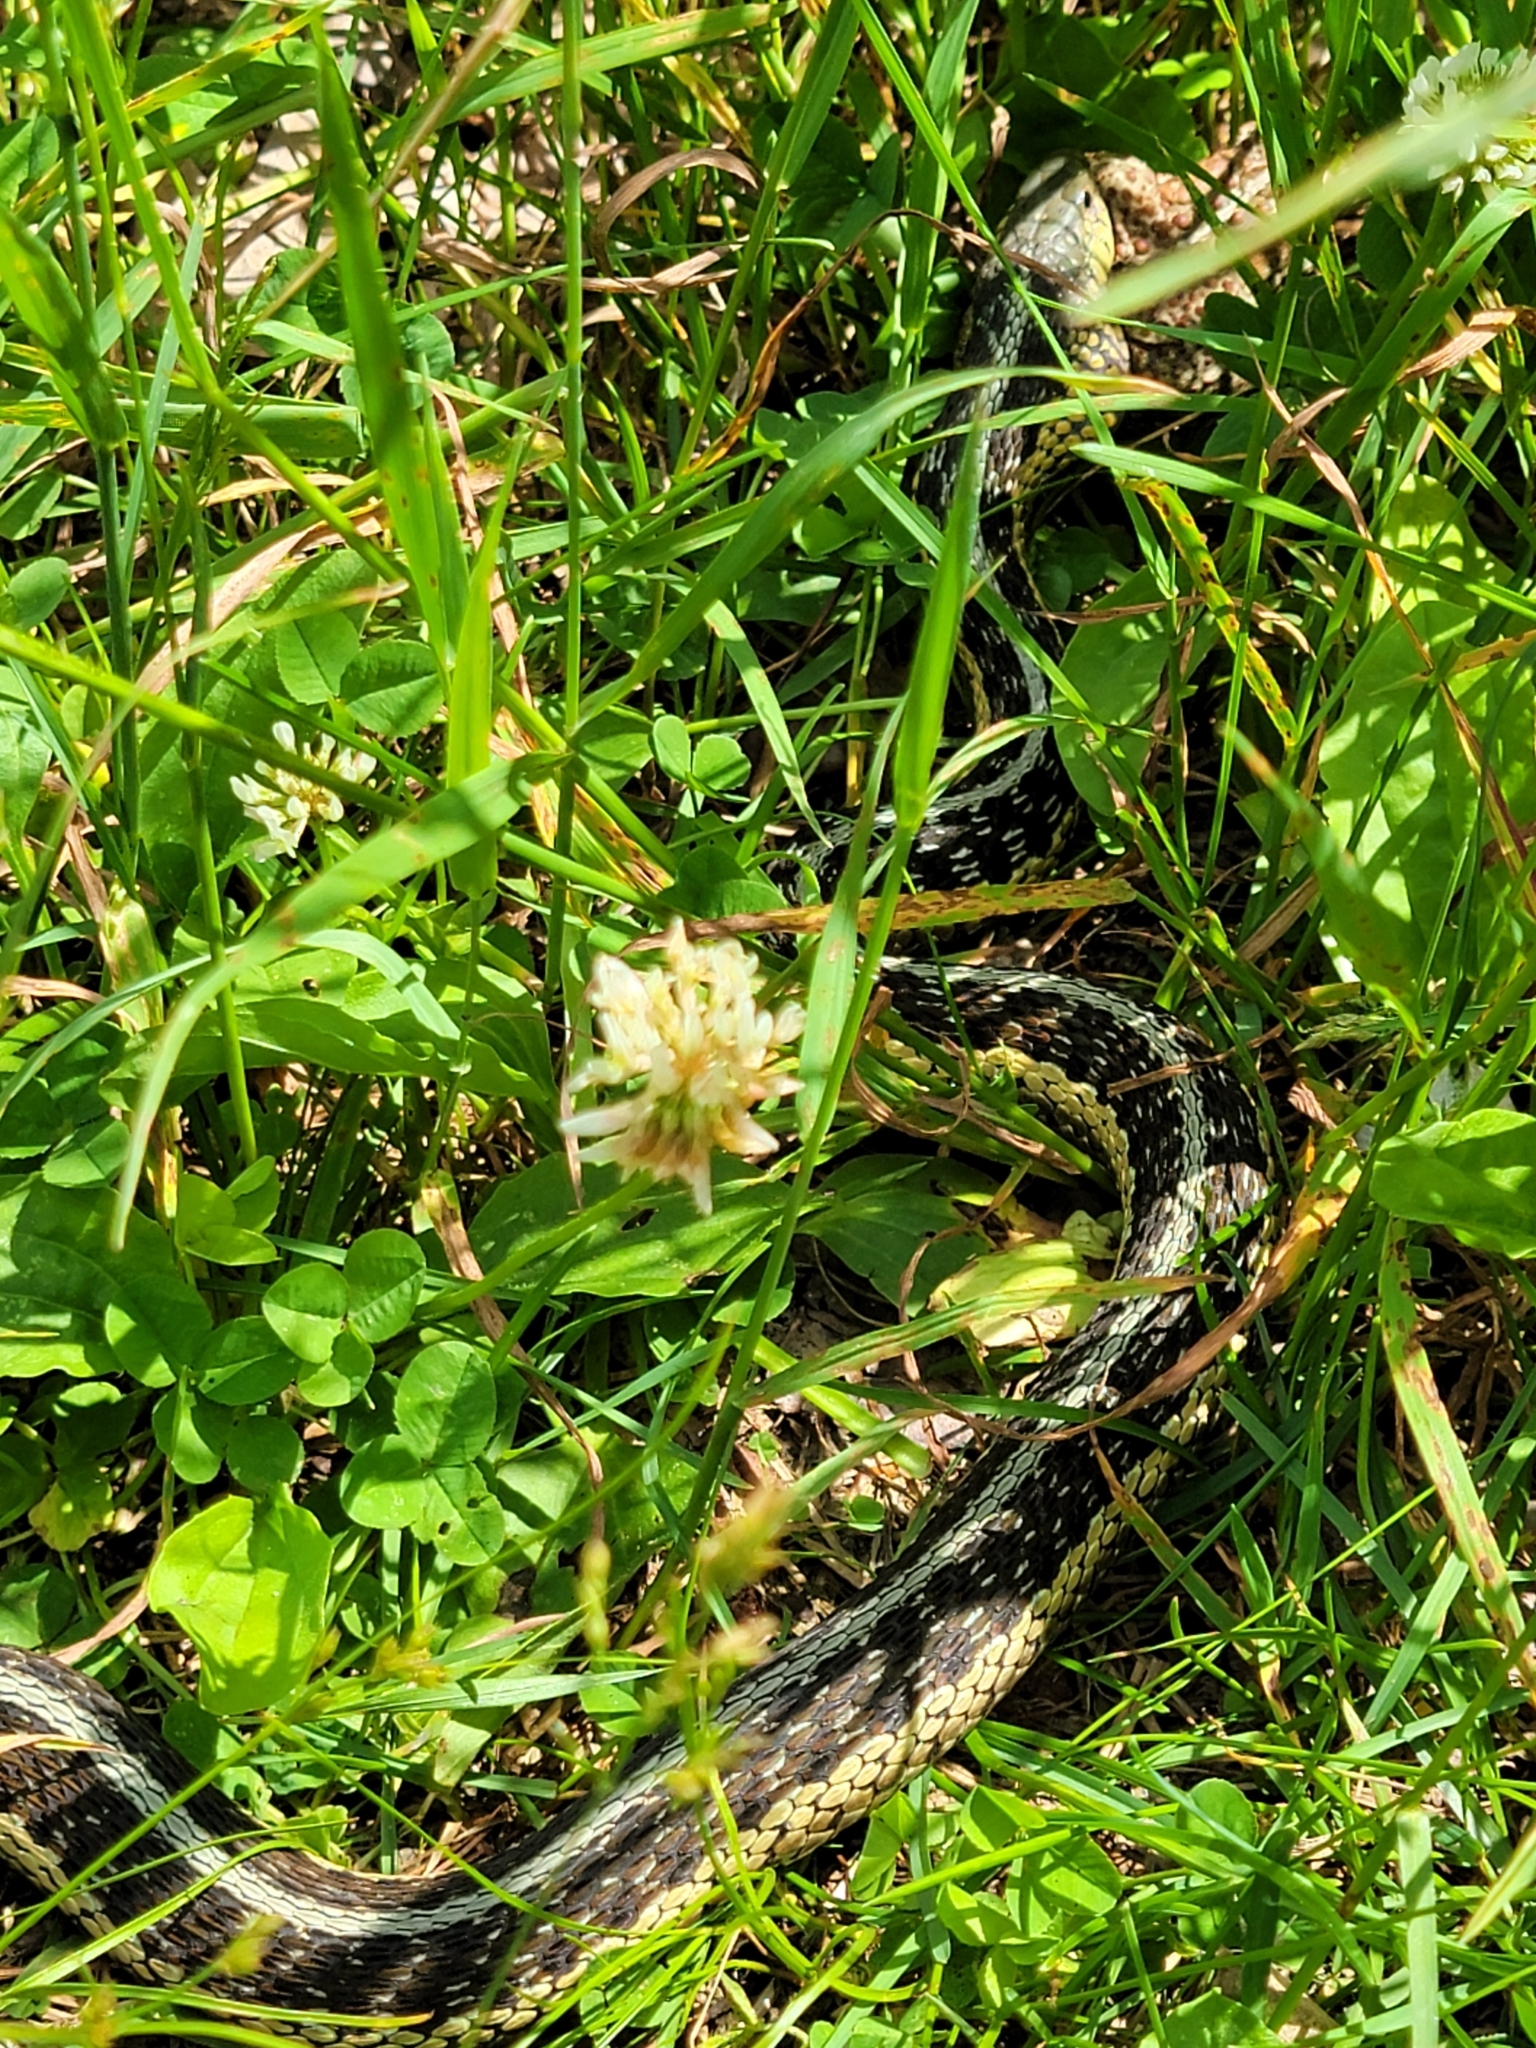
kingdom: Animalia
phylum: Chordata
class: Squamata
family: Colubridae
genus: Thamnophis
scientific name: Thamnophis sirtalis
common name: Common garter snake
